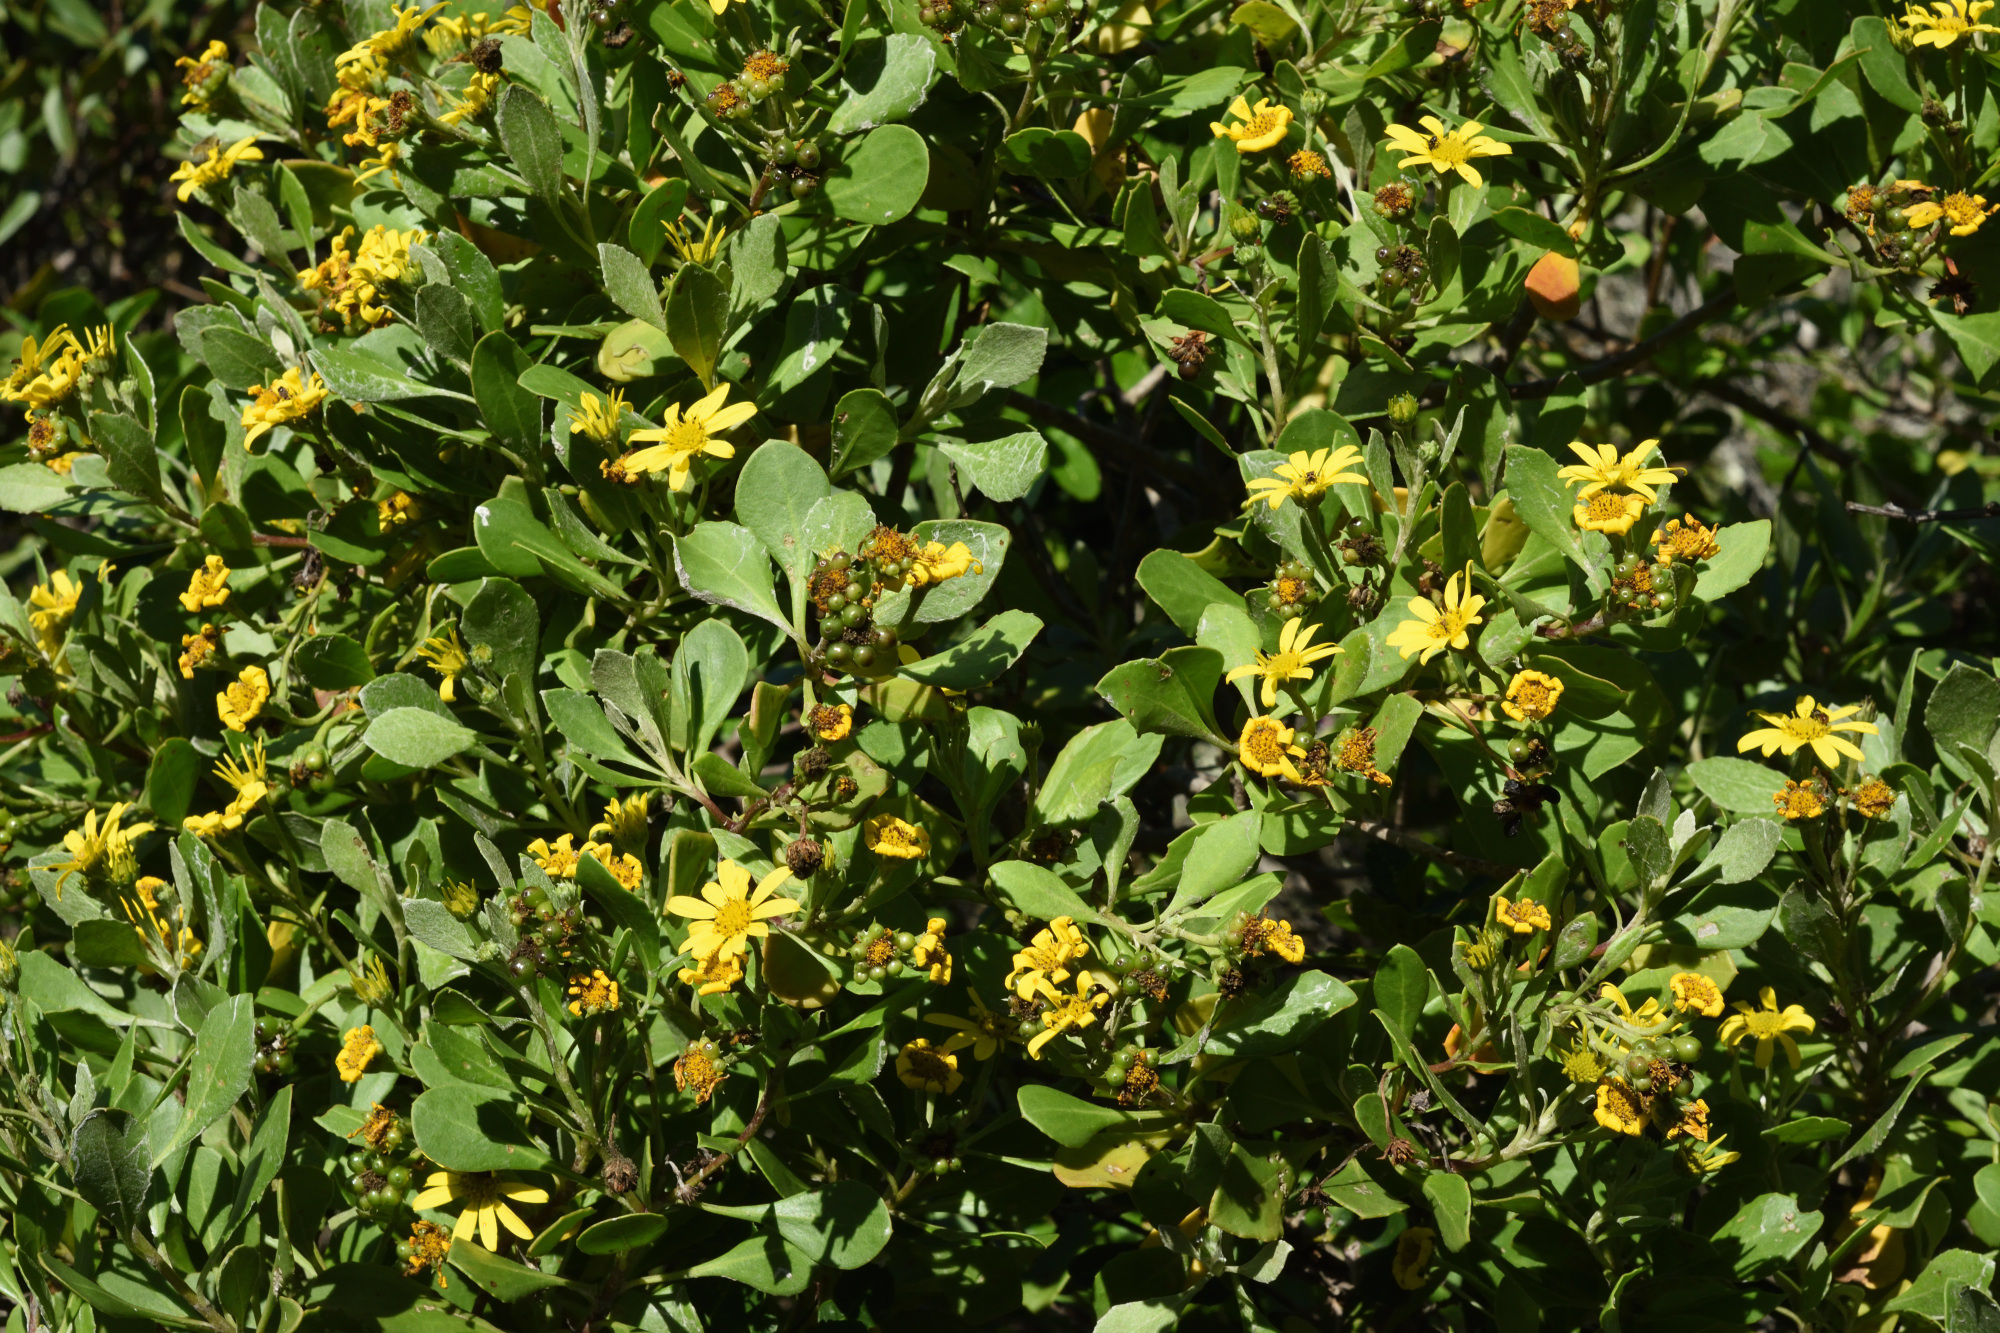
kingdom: Plantae
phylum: Tracheophyta
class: Magnoliopsida
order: Asterales
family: Asteraceae
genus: Osteospermum
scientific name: Osteospermum moniliferum
